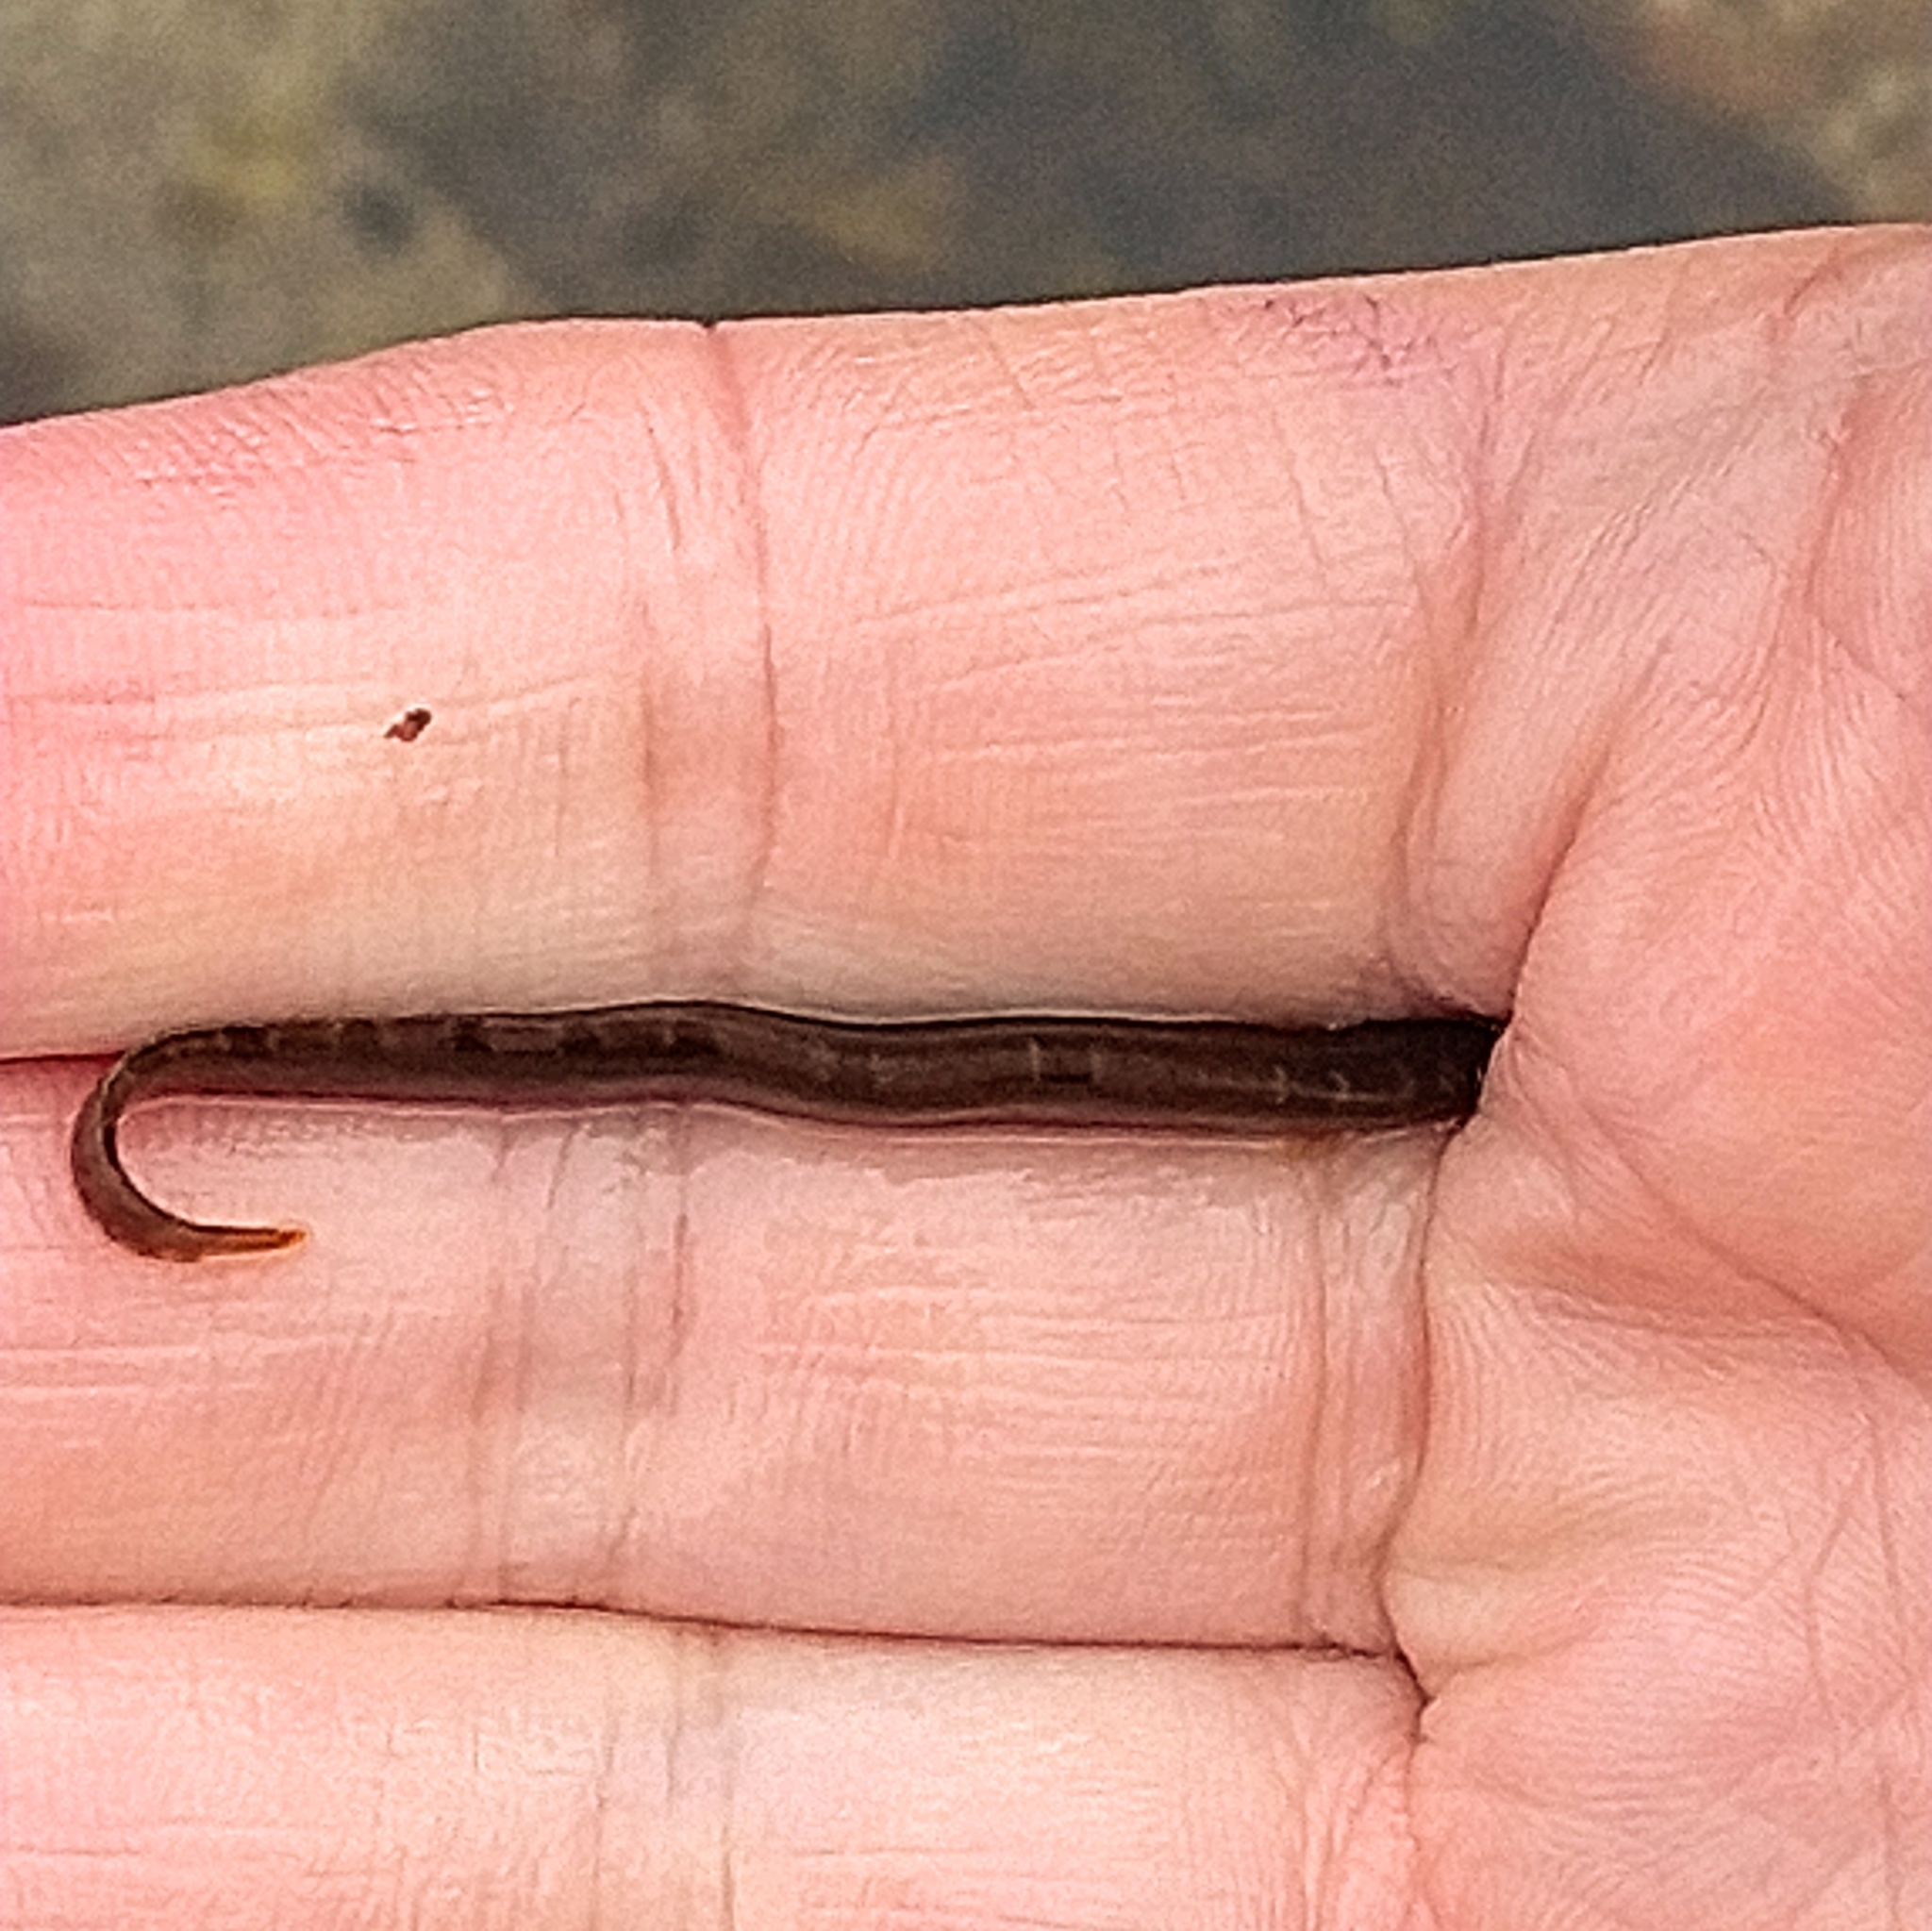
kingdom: Animalia
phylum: Chordata
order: Perciformes
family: Pholidae
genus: Pholis
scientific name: Pholis gunnellus
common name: Butterfish
